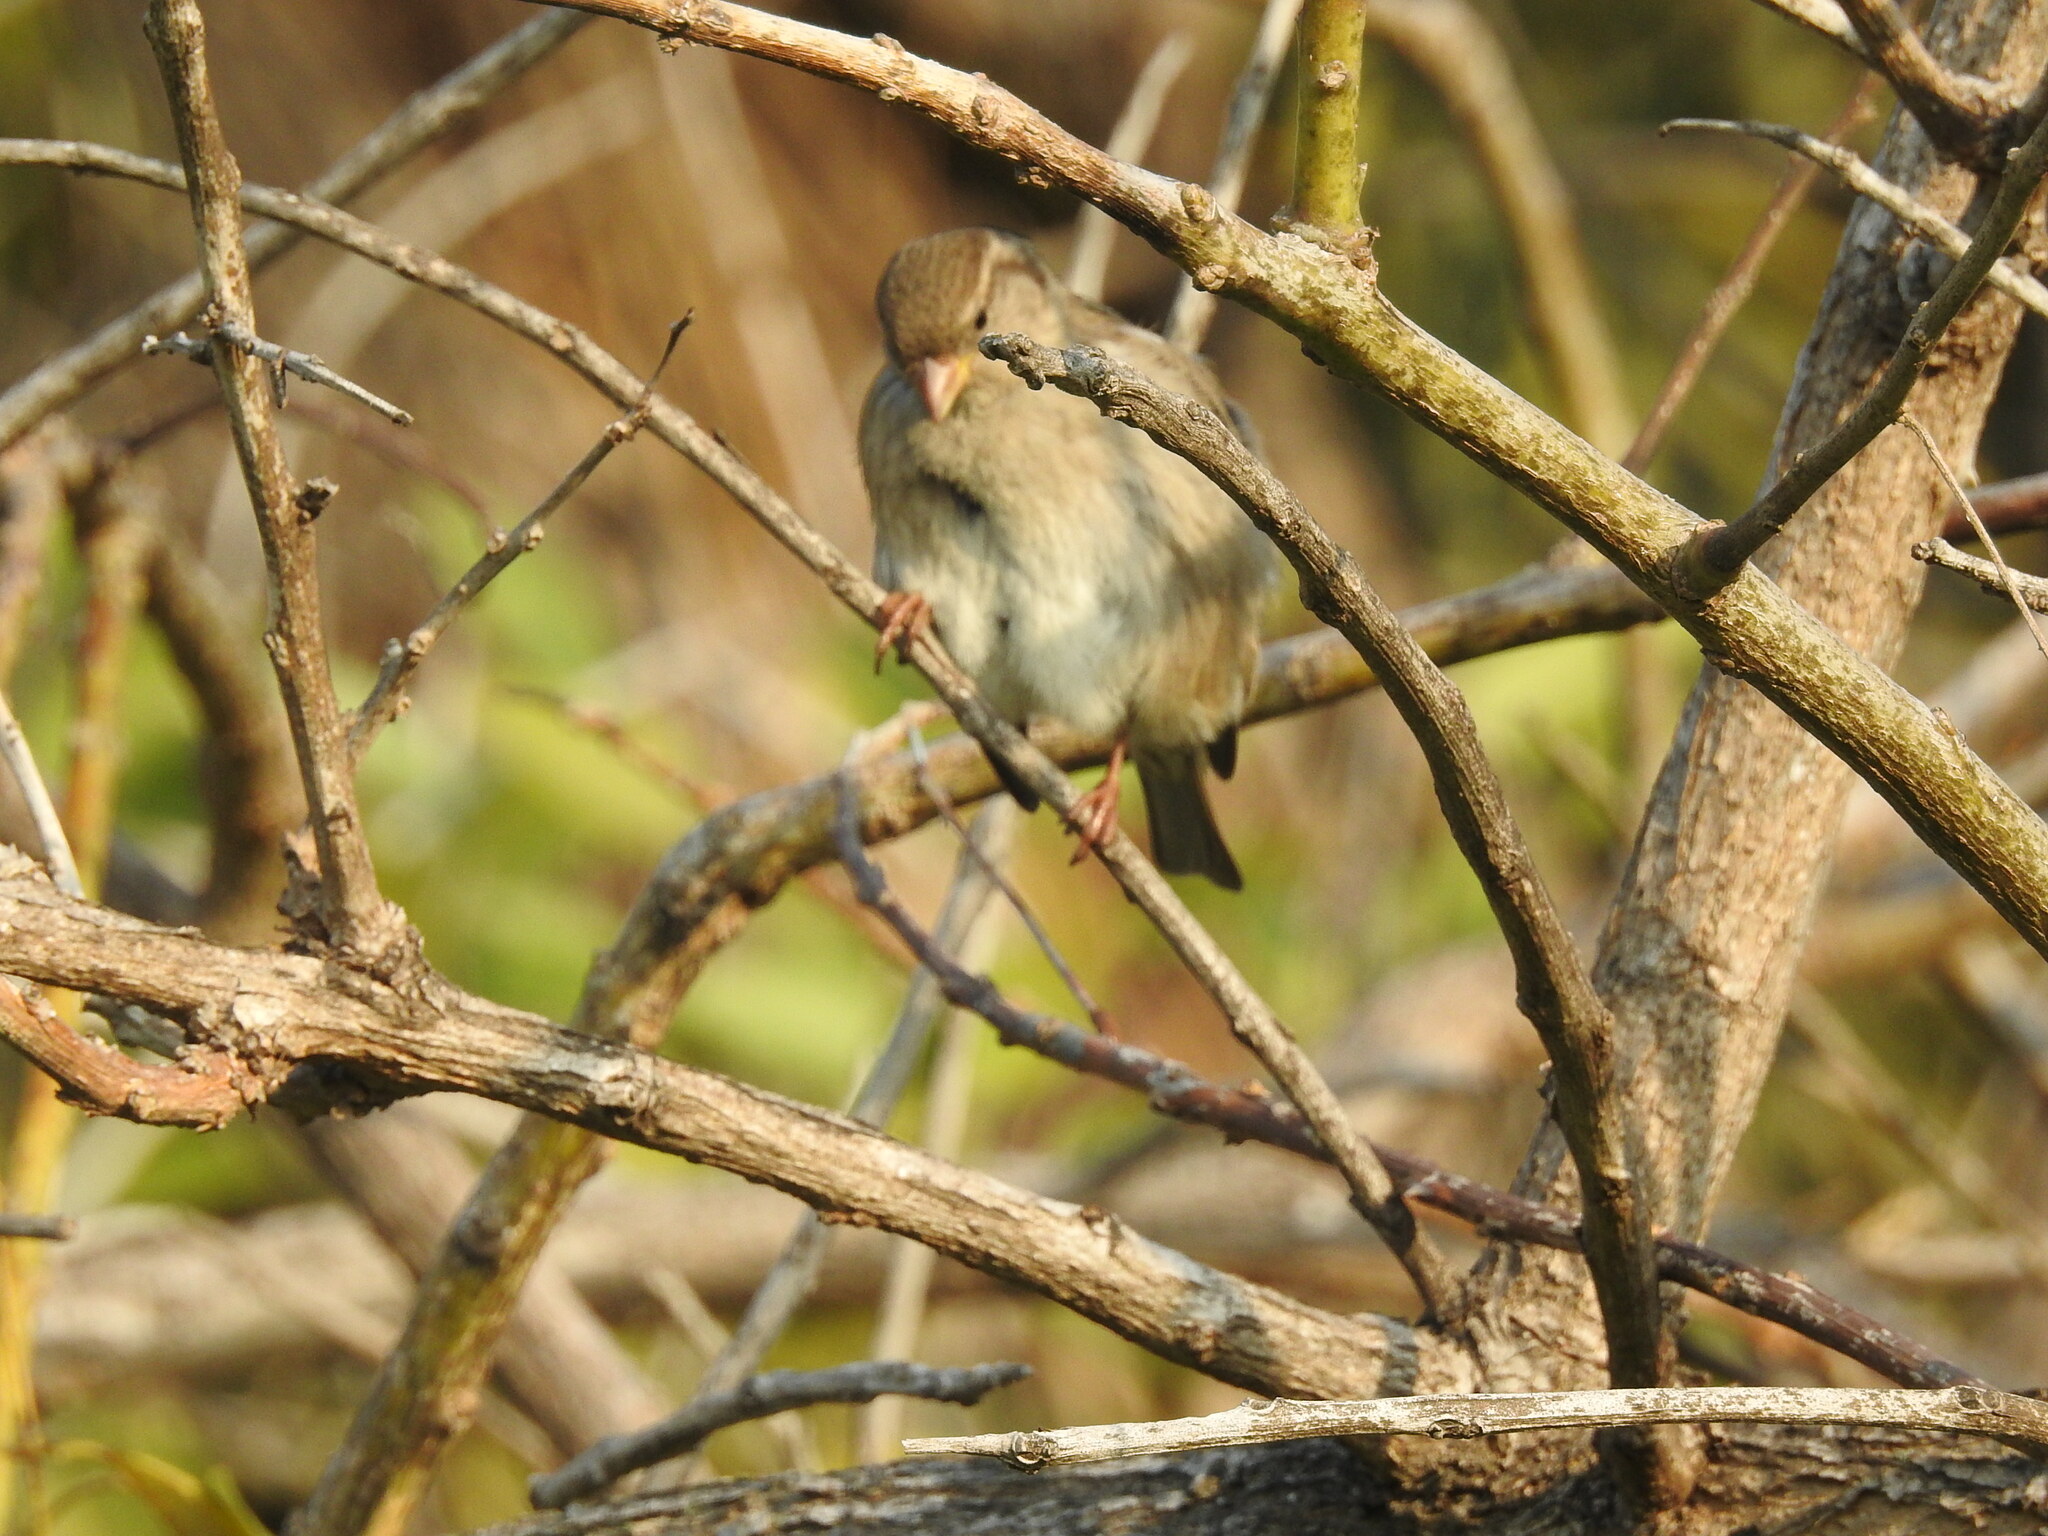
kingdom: Animalia
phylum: Chordata
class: Aves
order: Passeriformes
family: Passeridae
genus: Passer
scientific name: Passer domesticus
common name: House sparrow
